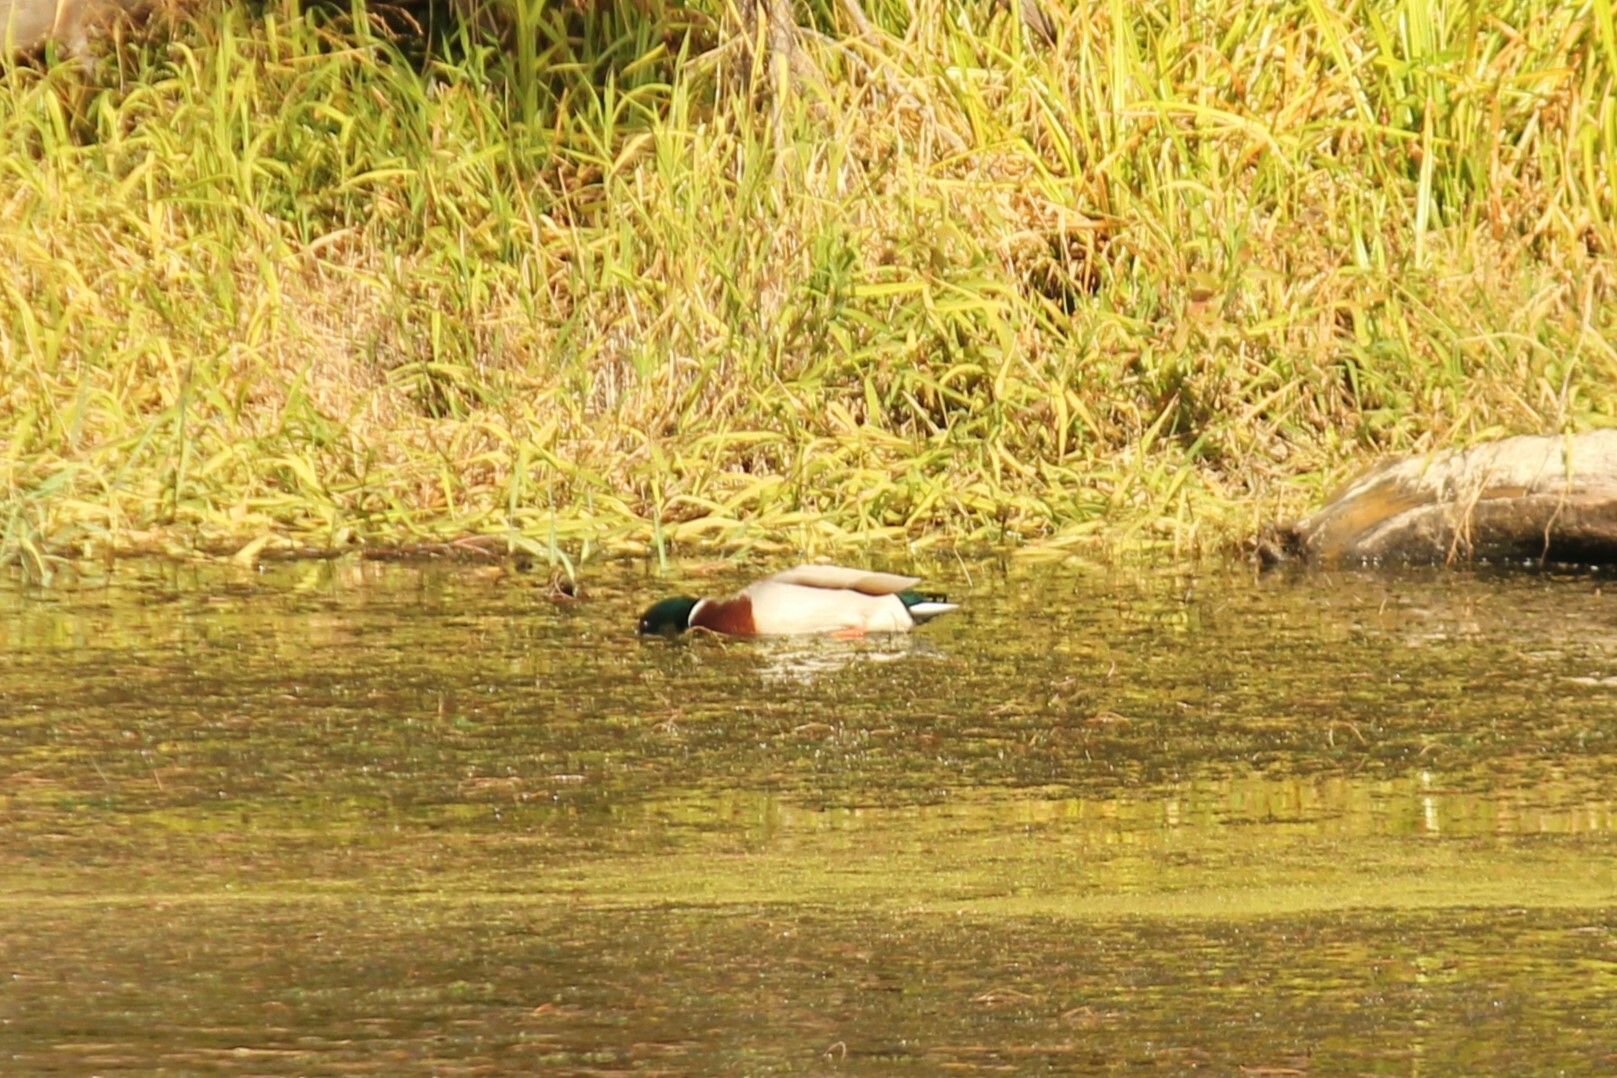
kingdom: Animalia
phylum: Chordata
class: Aves
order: Anseriformes
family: Anatidae
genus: Anas
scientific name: Anas platyrhynchos
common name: Mallard
